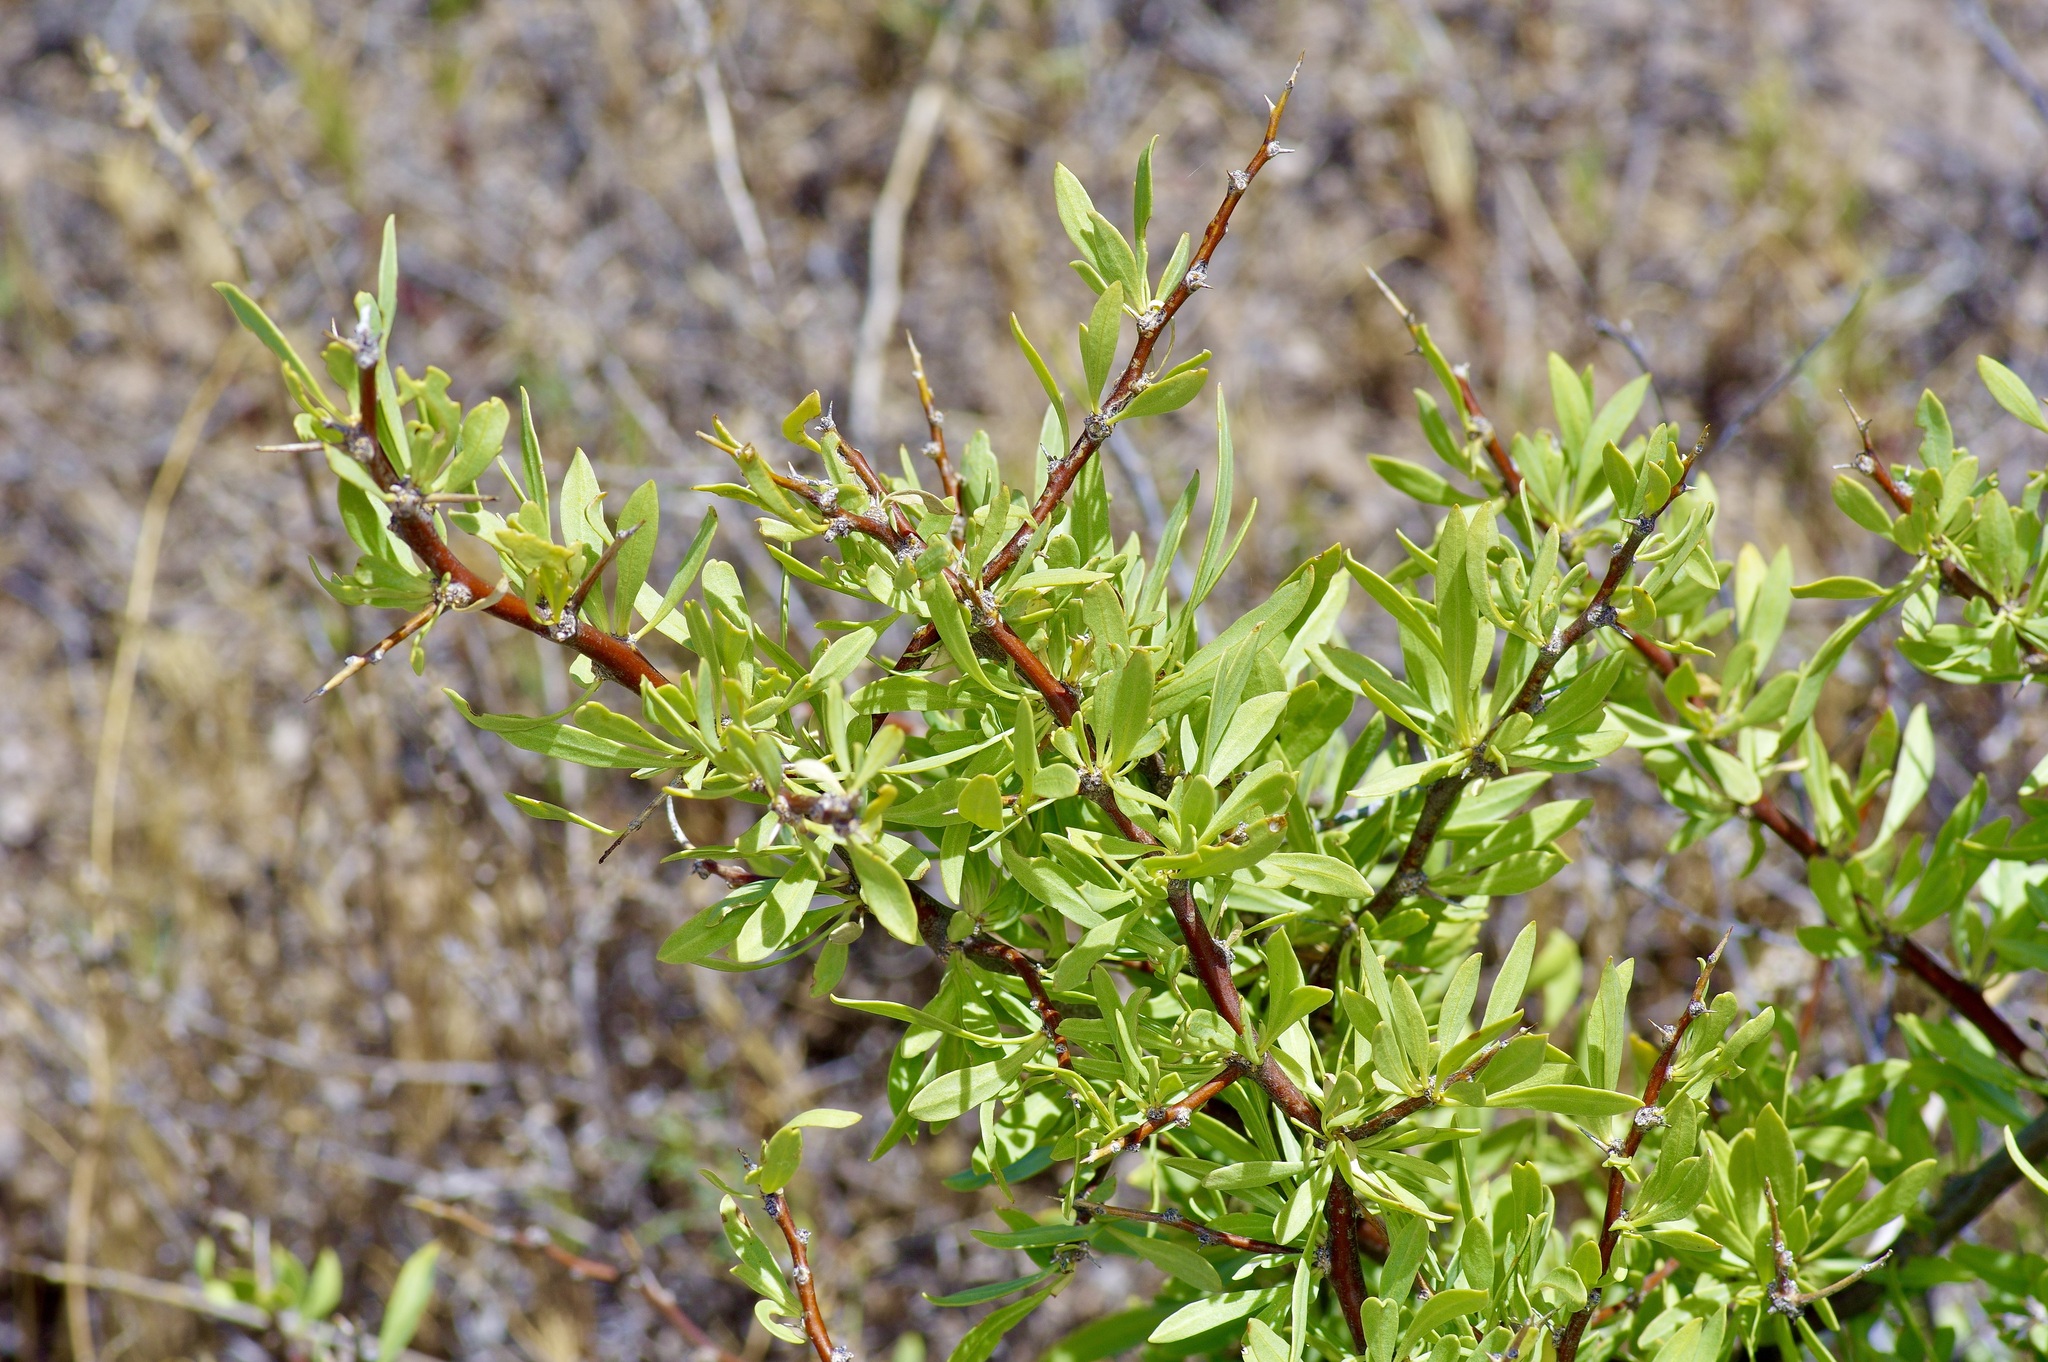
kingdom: Plantae
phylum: Tracheophyta
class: Magnoliopsida
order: Solanales
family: Solanaceae
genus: Lycium
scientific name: Lycium pallidum
